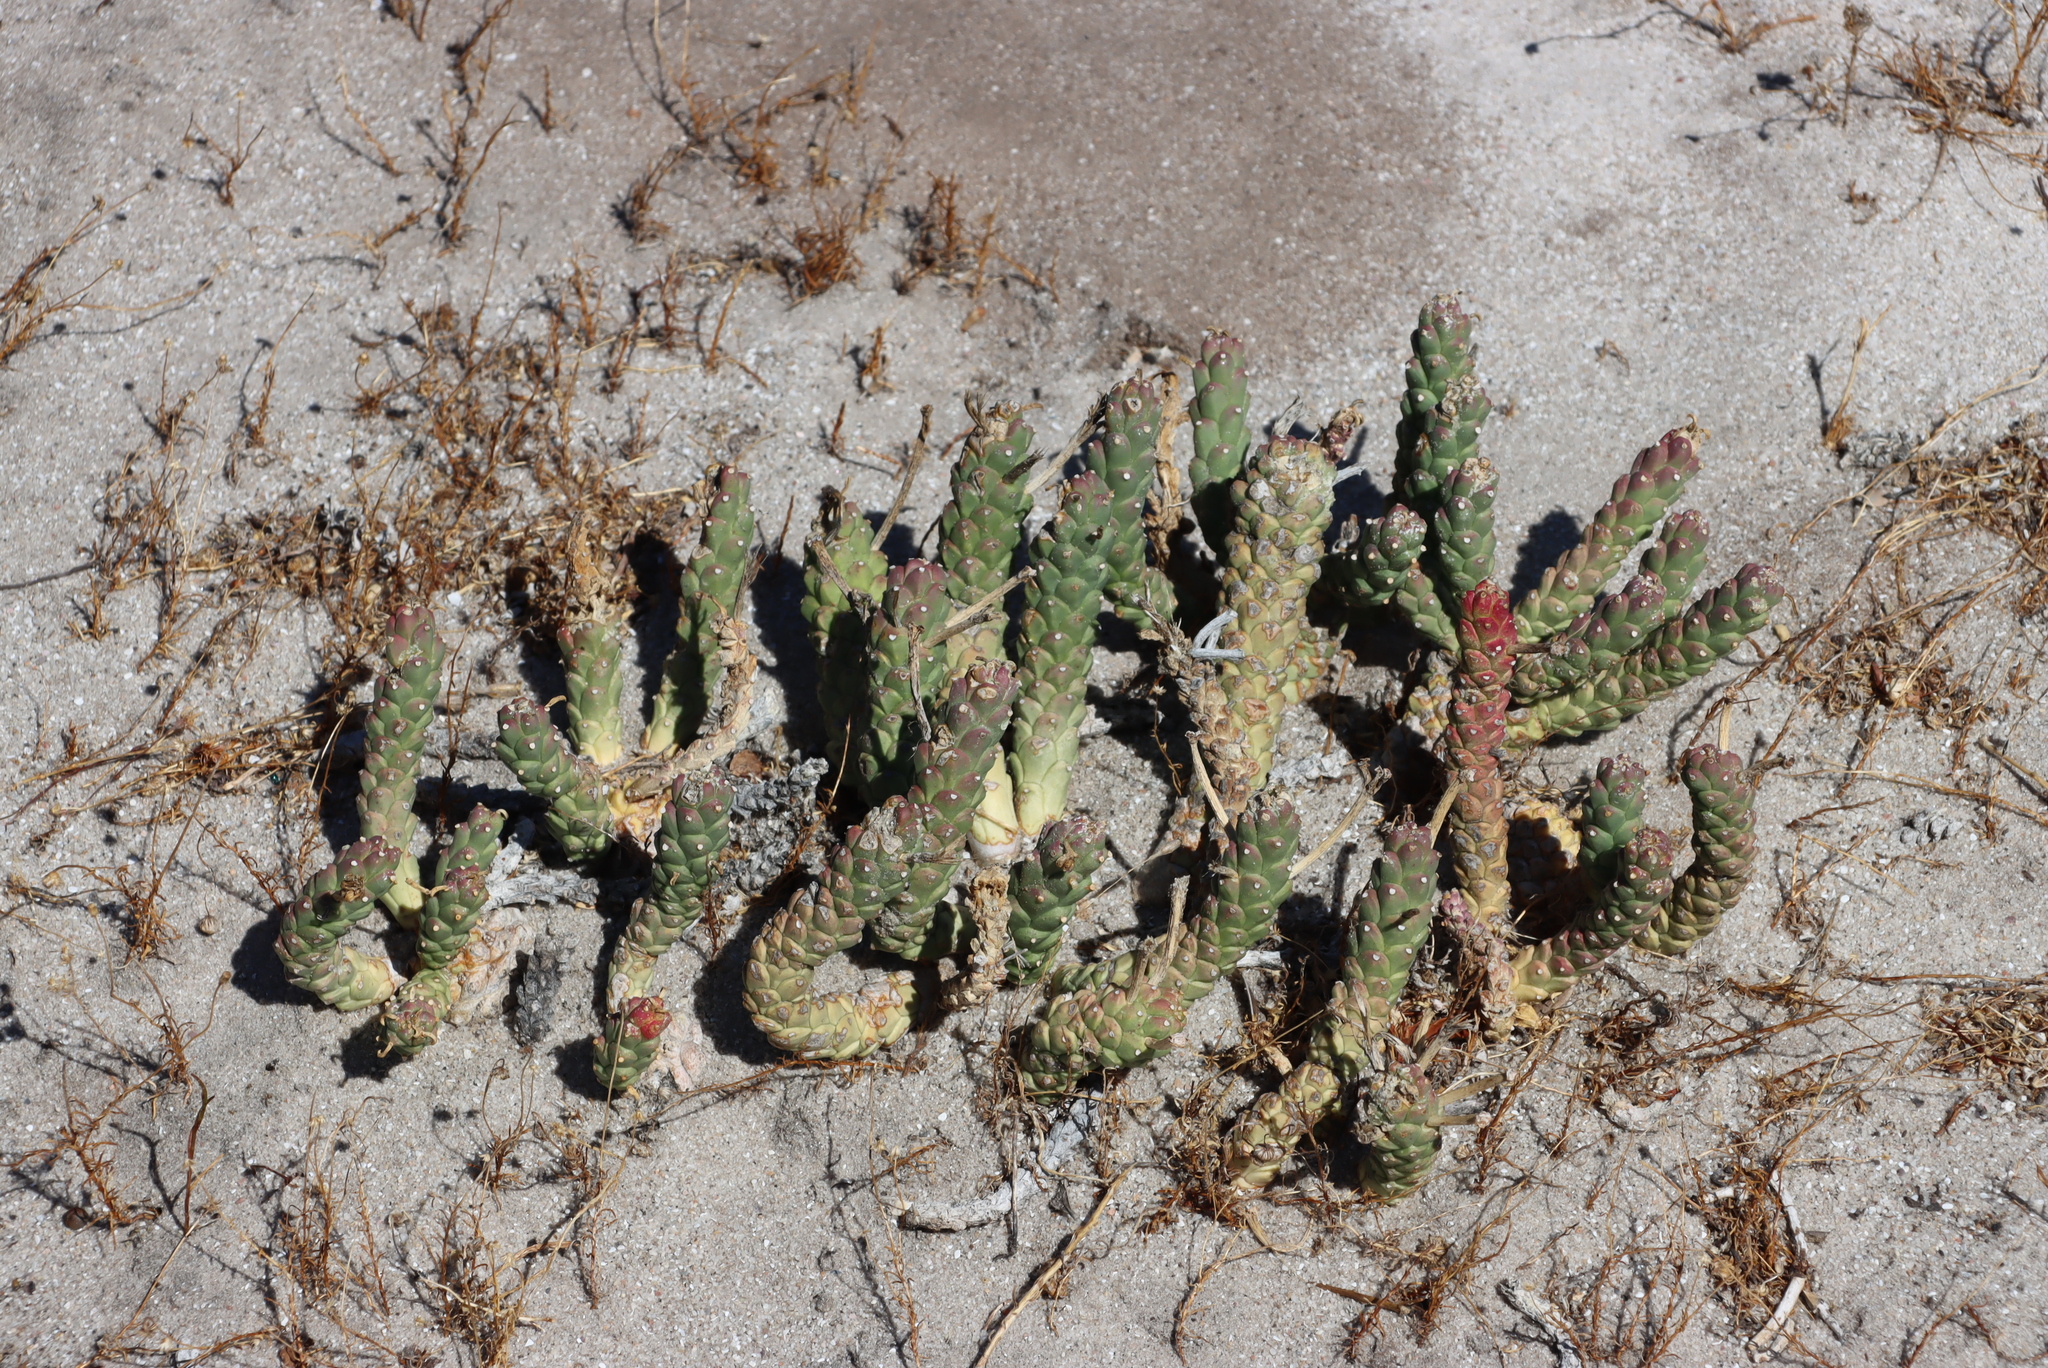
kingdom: Plantae
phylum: Tracheophyta
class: Magnoliopsida
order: Malpighiales
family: Euphorbiaceae
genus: Euphorbia
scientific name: Euphorbia caput-medusae
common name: Medusa's-head
